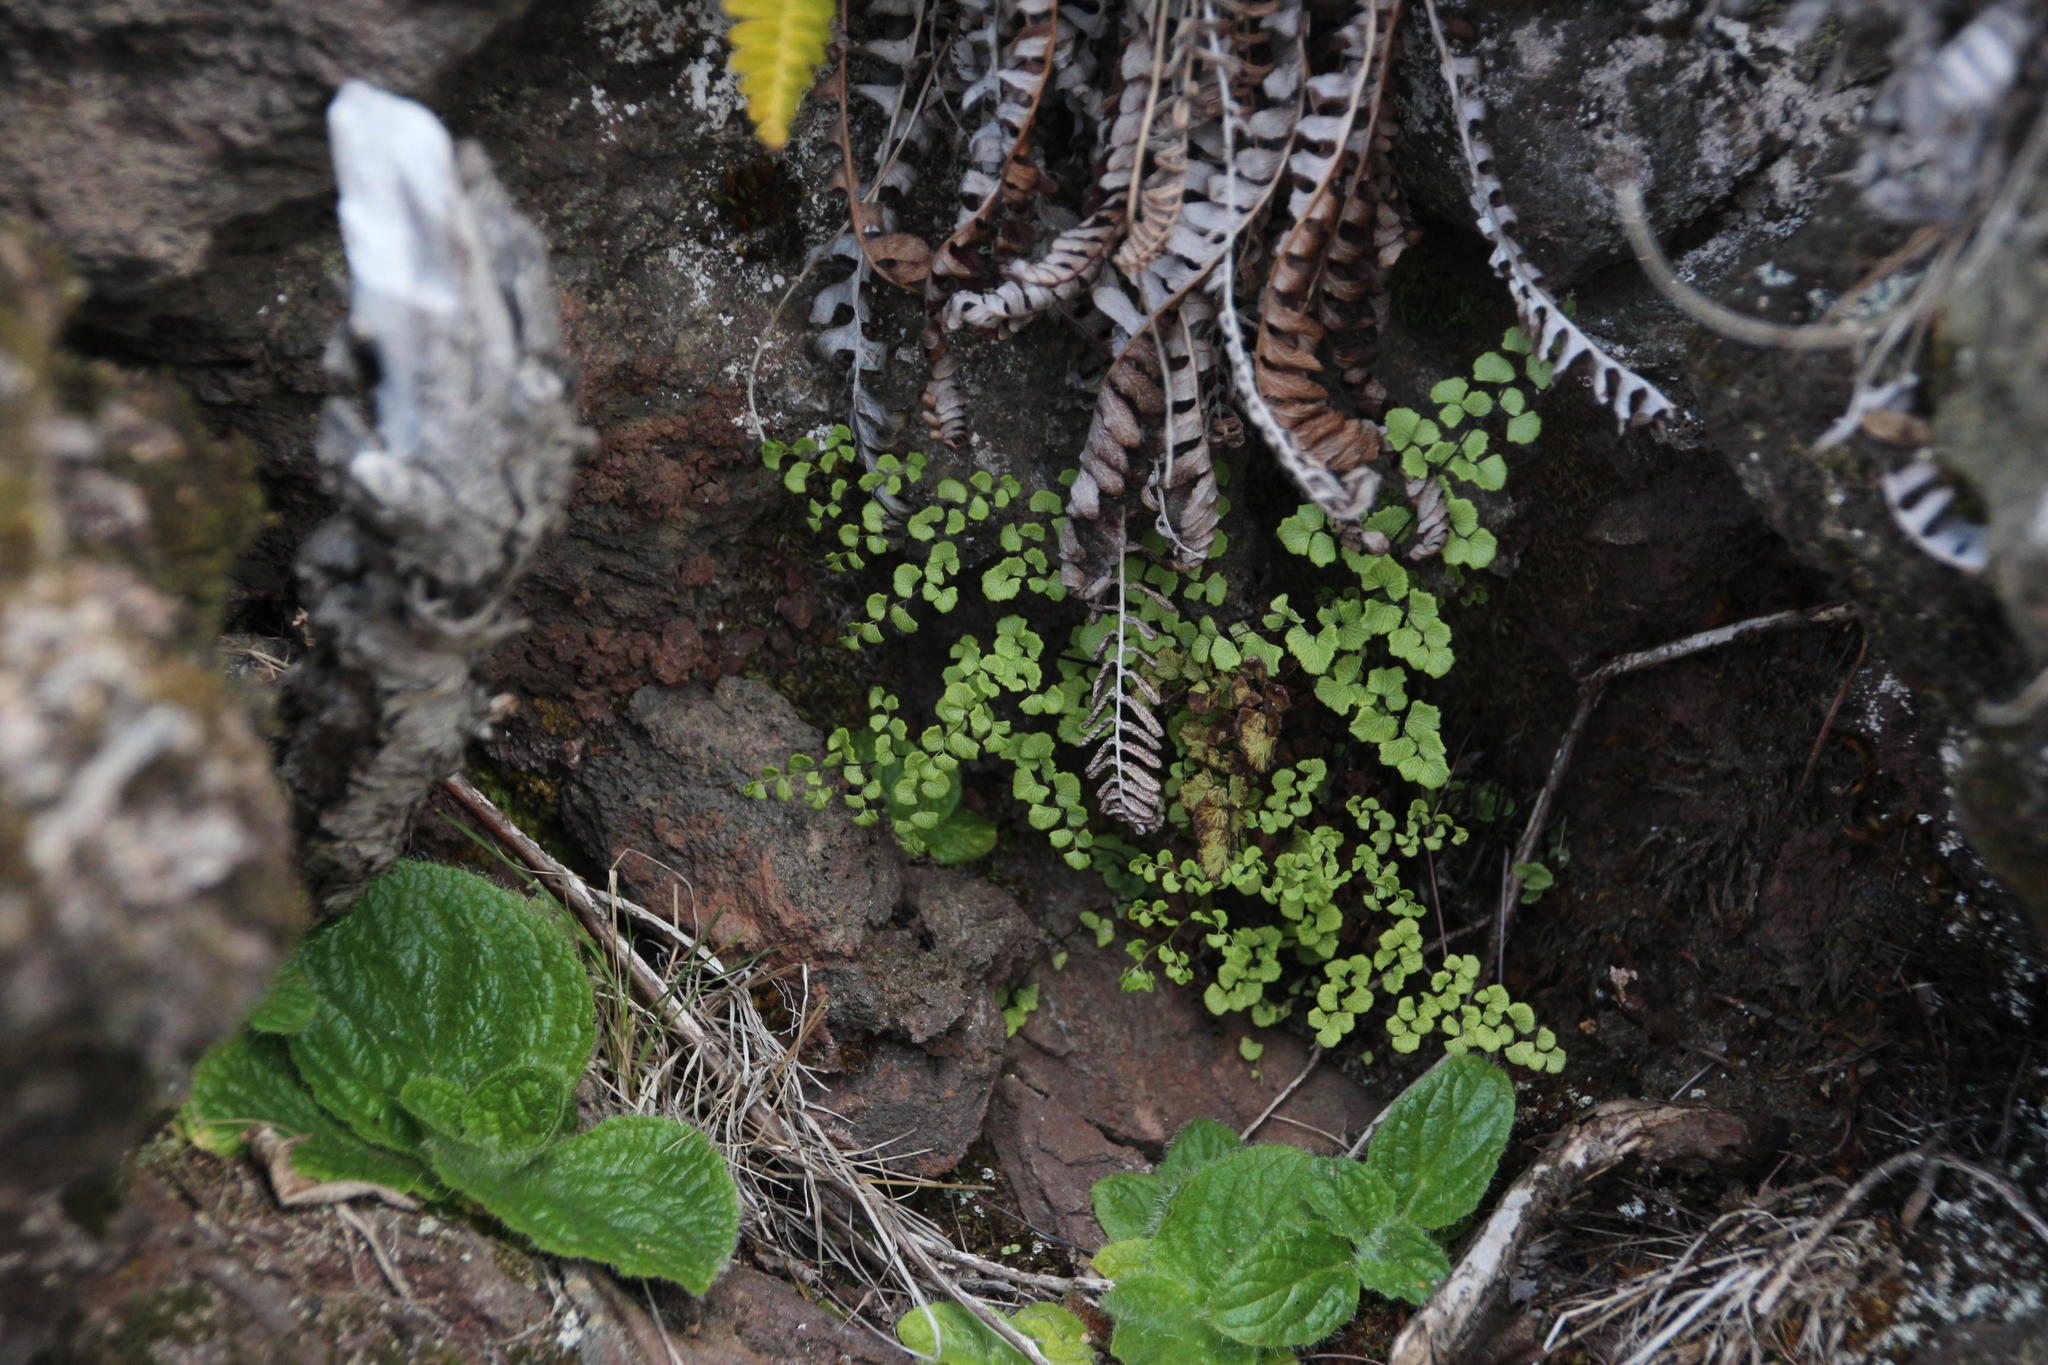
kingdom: Plantae
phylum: Tracheophyta
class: Polypodiopsida
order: Polypodiales
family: Pteridaceae
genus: Adiantum
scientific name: Adiantum
